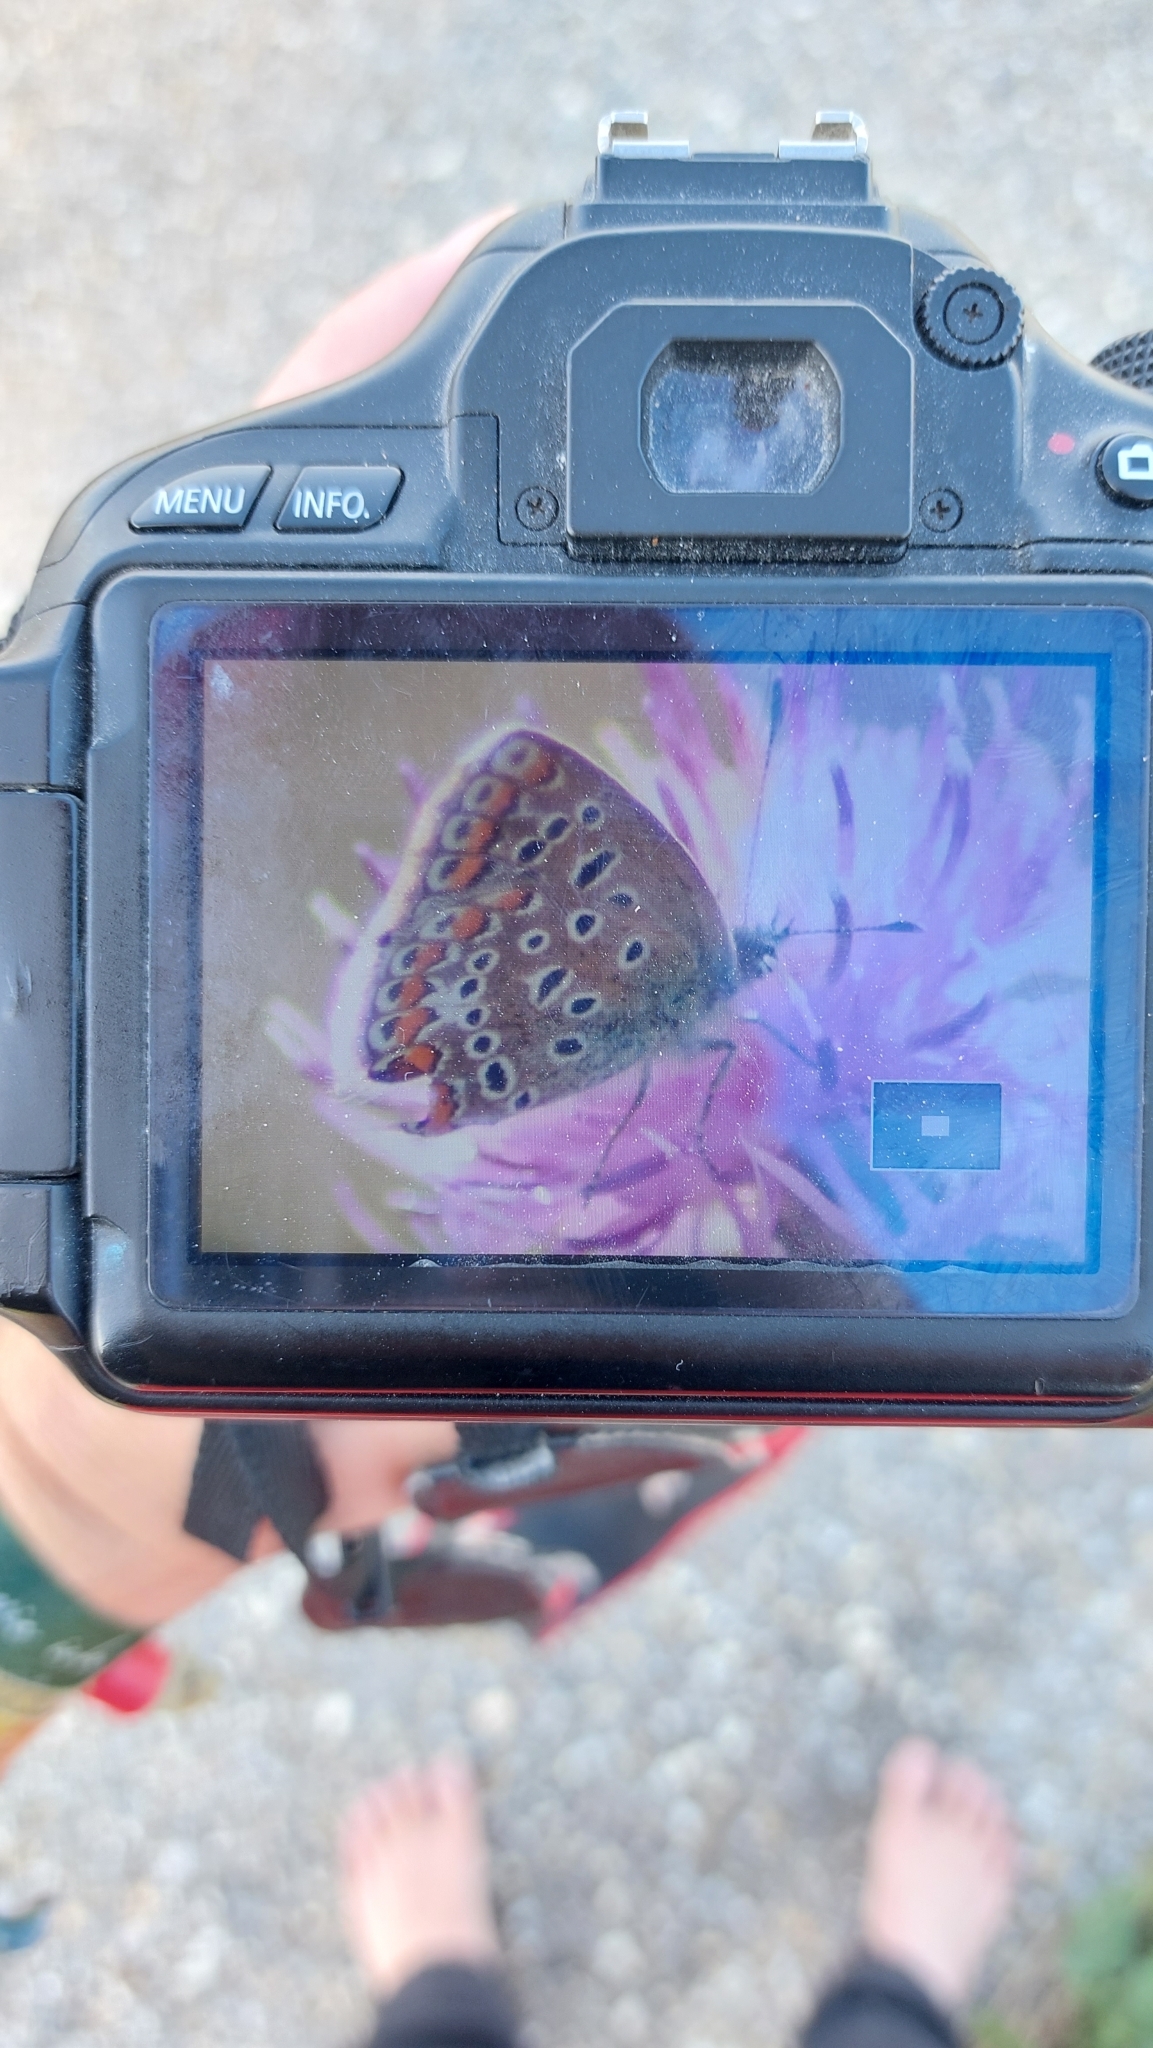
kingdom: Animalia
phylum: Arthropoda
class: Insecta
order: Lepidoptera
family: Lycaenidae
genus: Polyommatus
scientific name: Polyommatus icarus
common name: Common blue
